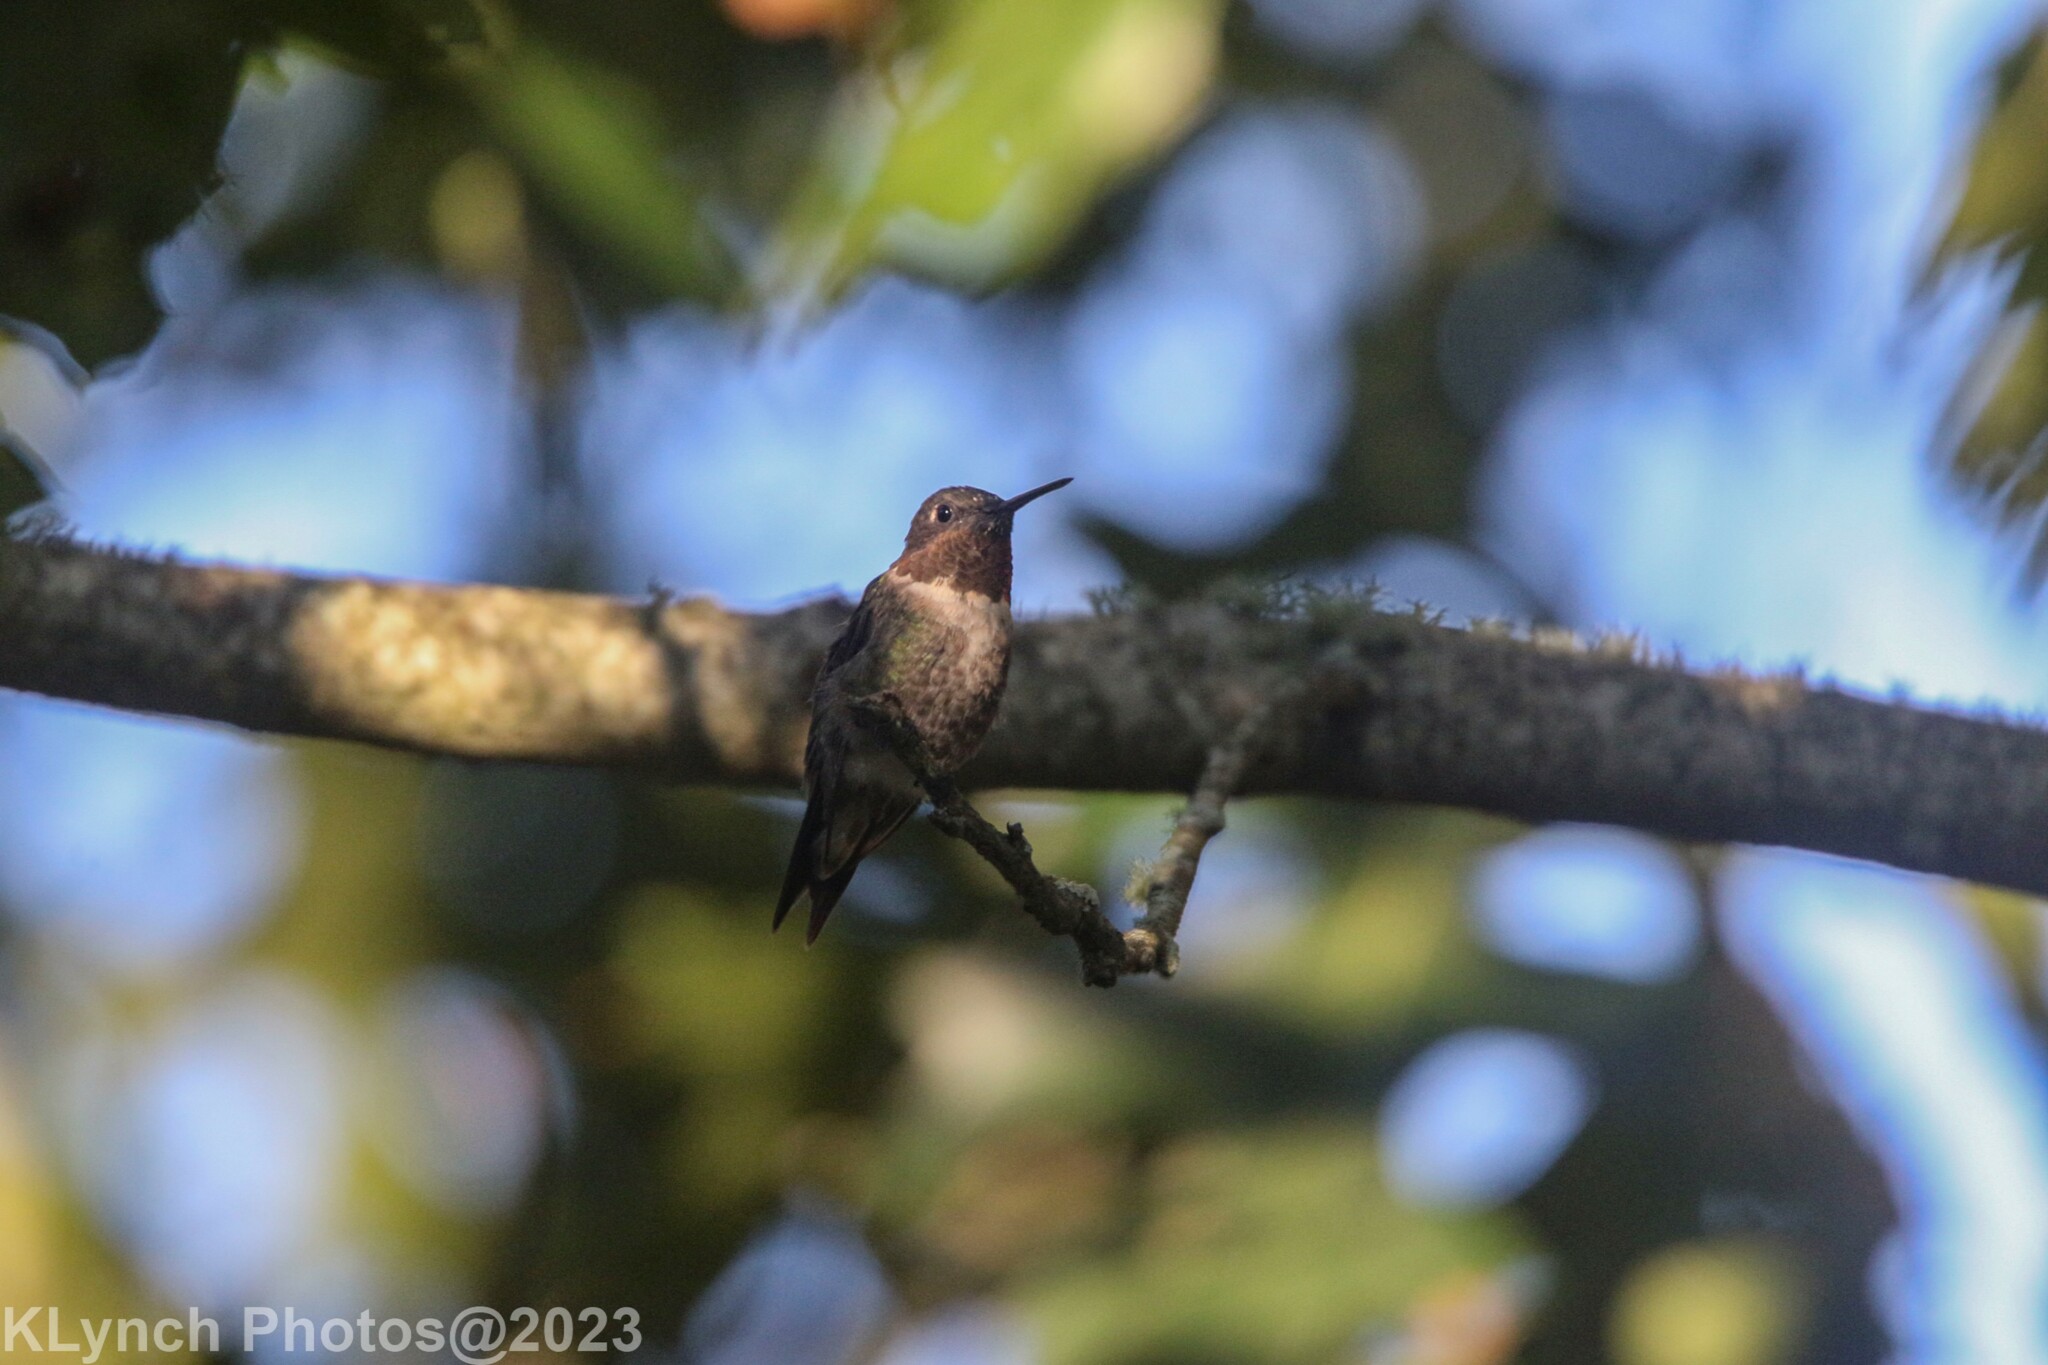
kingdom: Animalia
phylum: Chordata
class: Aves
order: Apodiformes
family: Trochilidae
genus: Archilochus
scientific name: Archilochus colubris
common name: Ruby-throated hummingbird
